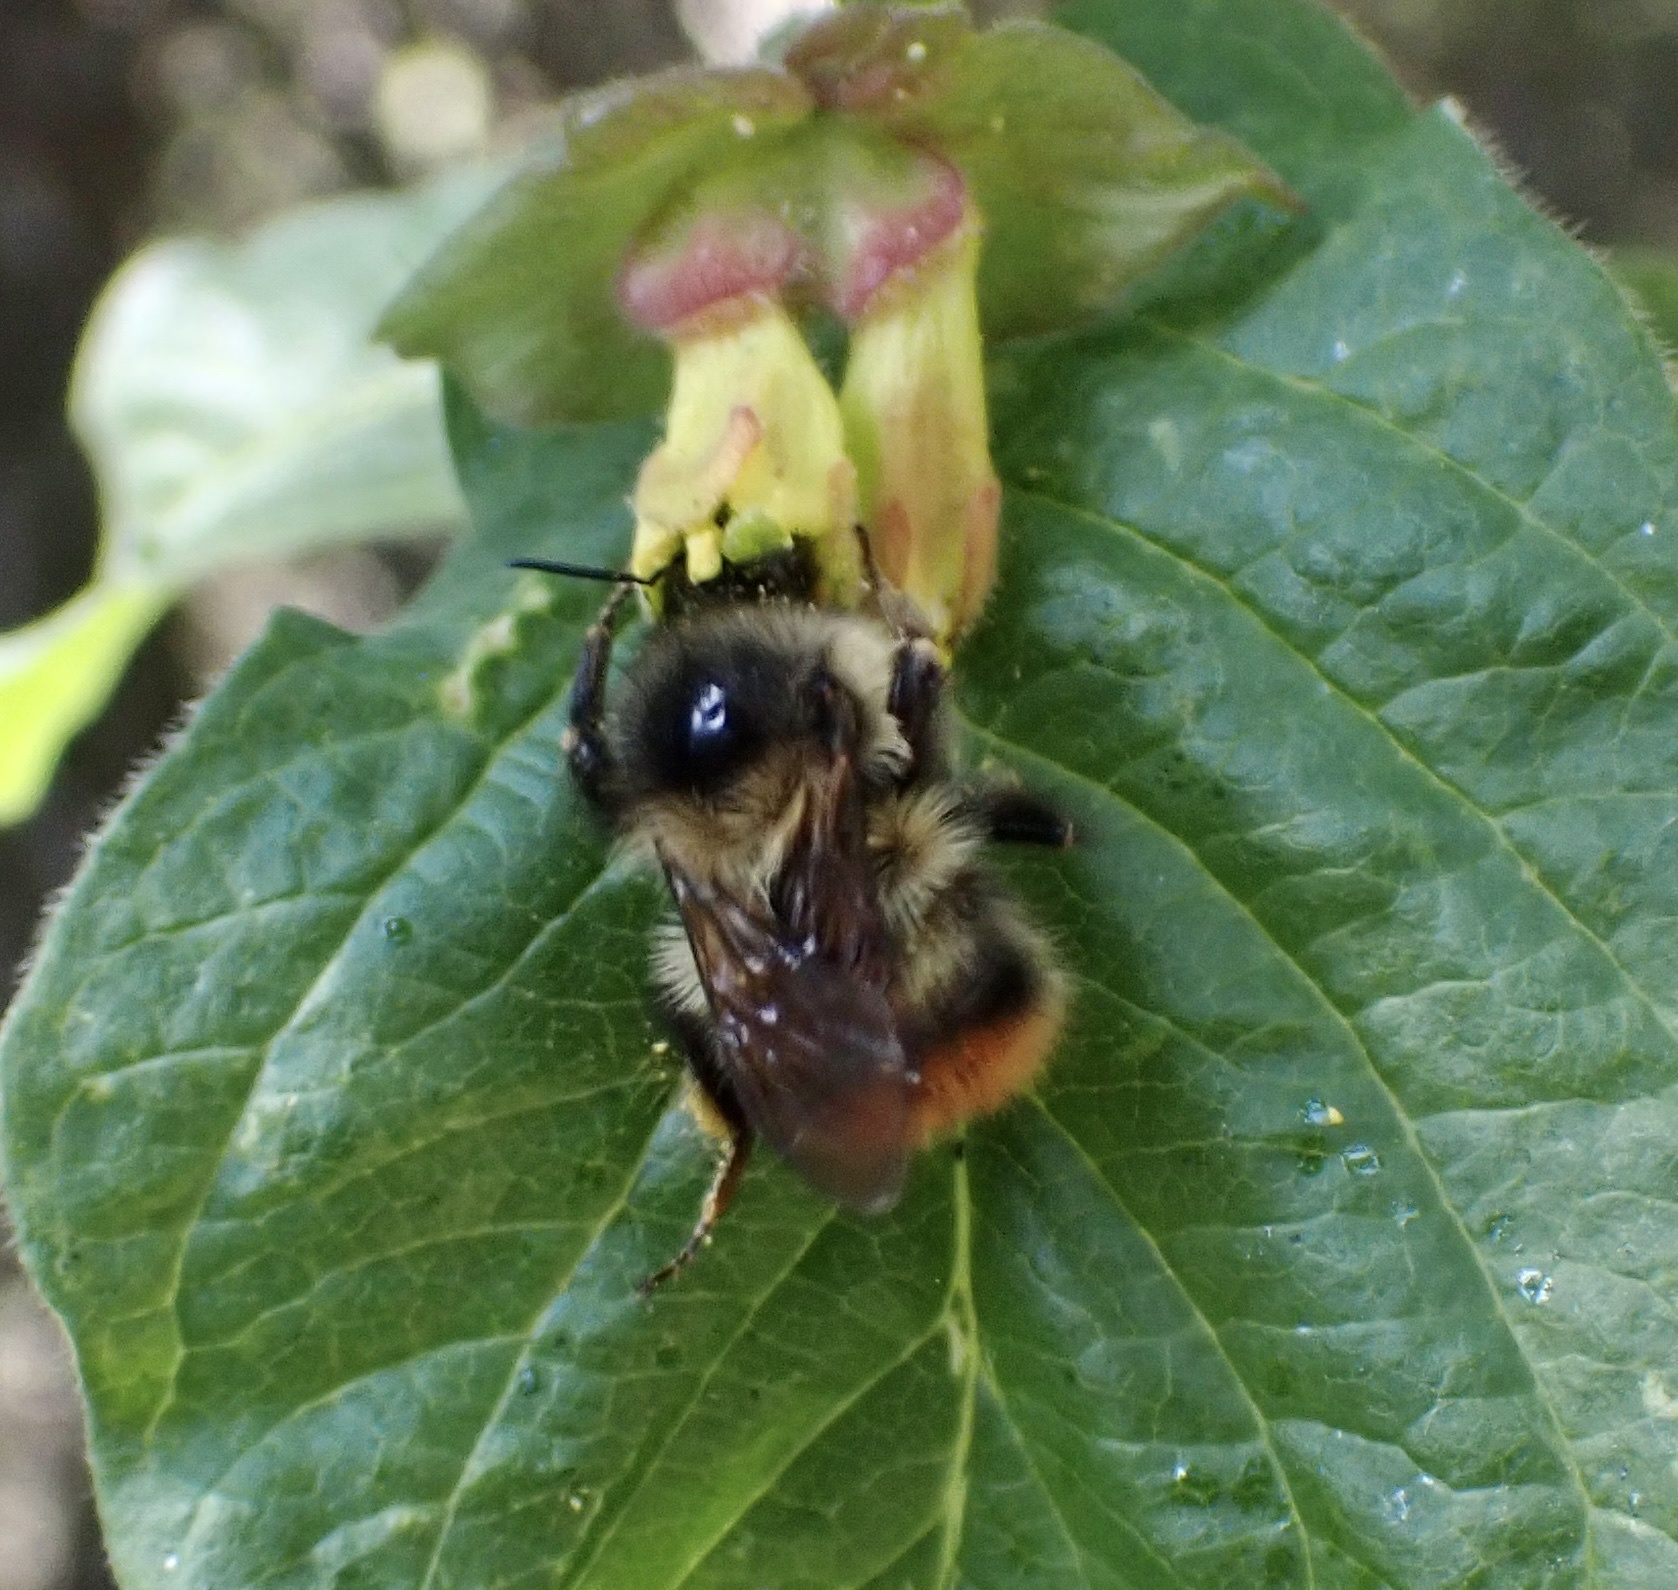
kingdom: Animalia
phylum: Arthropoda
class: Insecta
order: Hymenoptera
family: Apidae
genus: Bombus
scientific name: Bombus mixtus
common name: Fuzzy-horned bumble bee
